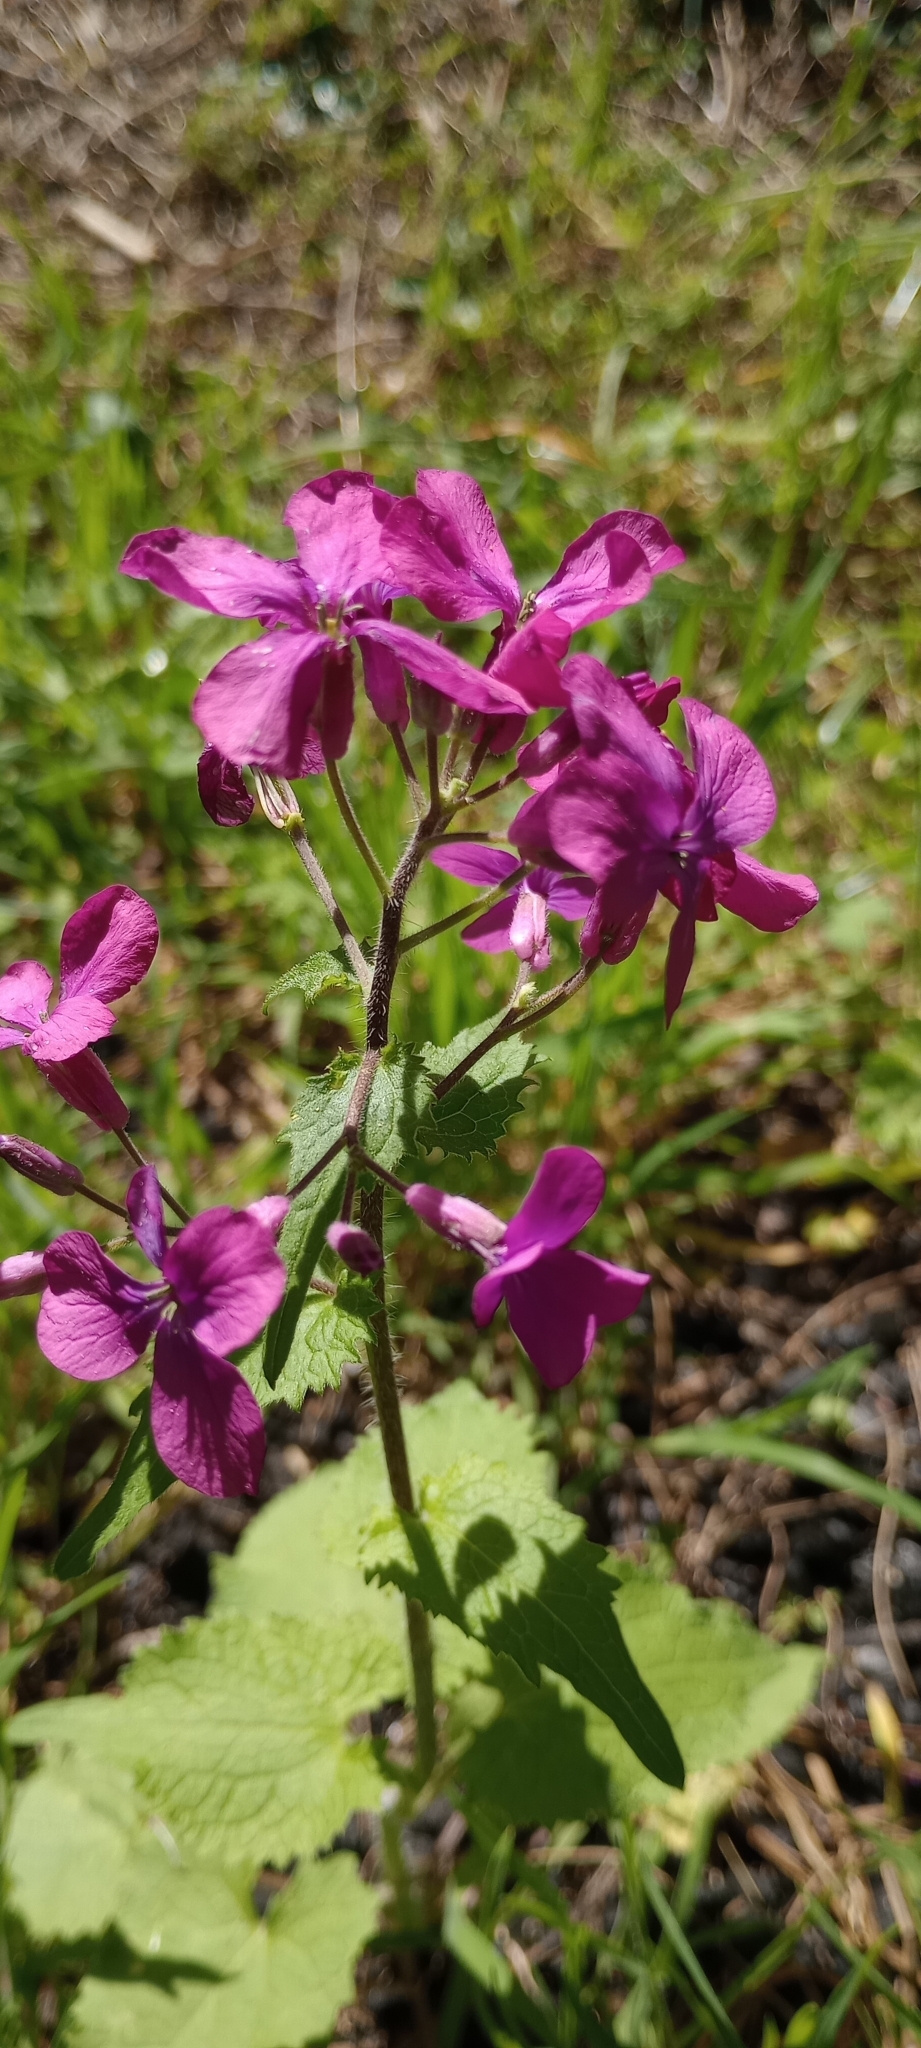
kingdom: Plantae
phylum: Tracheophyta
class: Magnoliopsida
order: Brassicales
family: Brassicaceae
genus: Lunaria
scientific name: Lunaria annua
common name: Honesty
